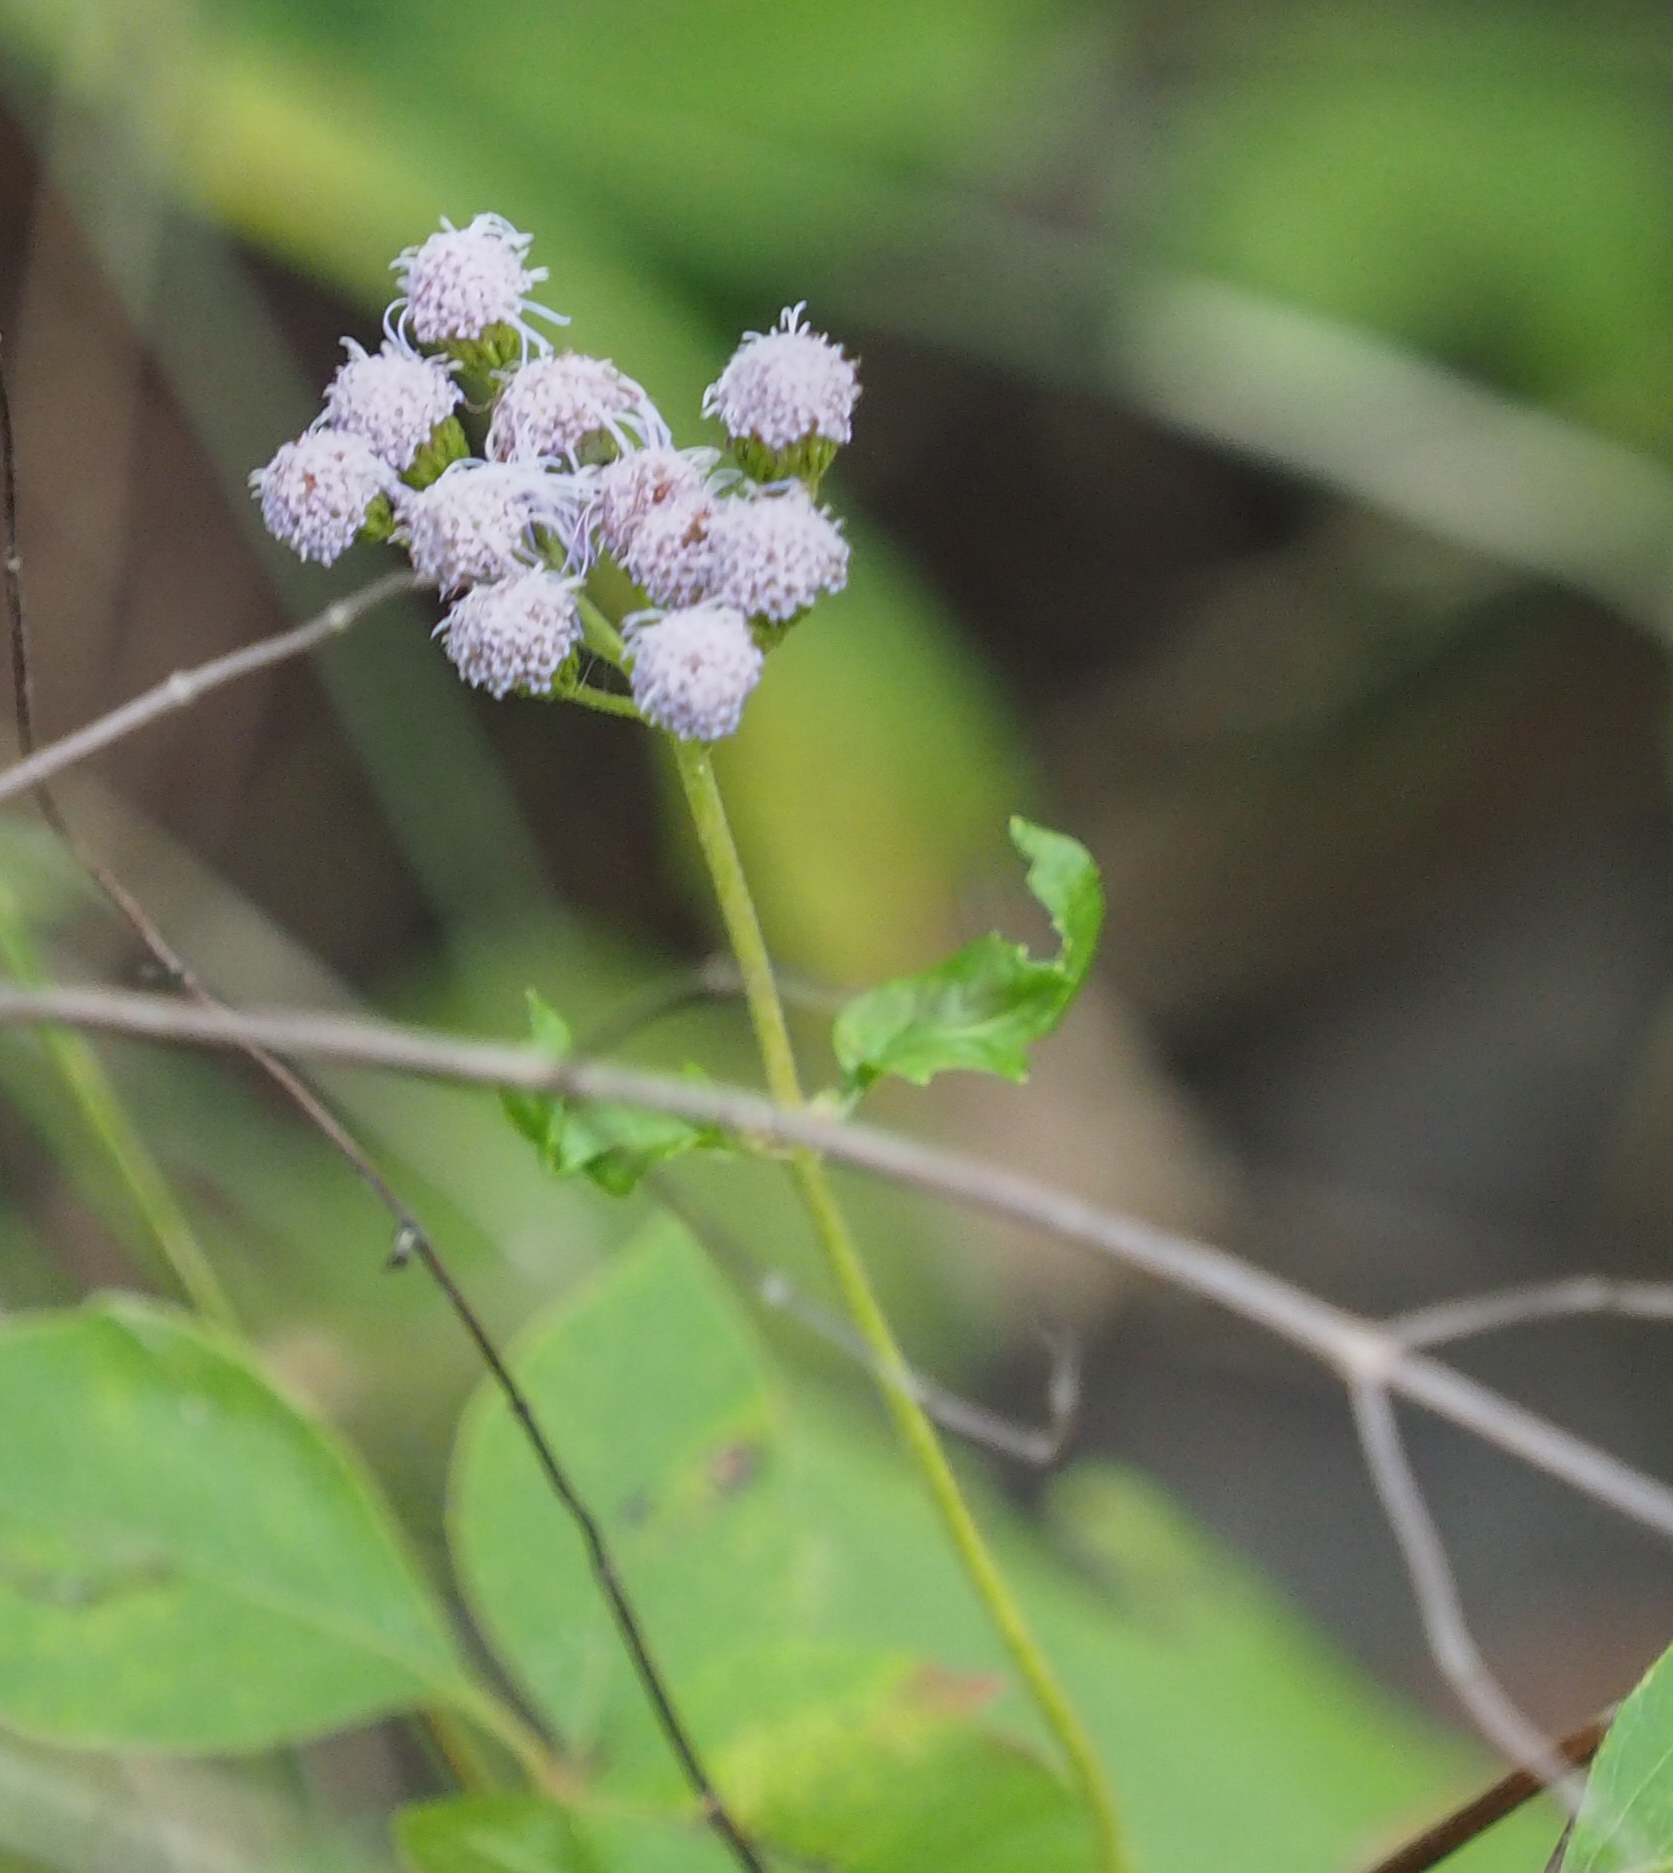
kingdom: Plantae
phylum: Tracheophyta
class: Magnoliopsida
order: Asterales
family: Asteraceae
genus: Conoclinium
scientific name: Conoclinium coelestinum
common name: Blue mistflower
